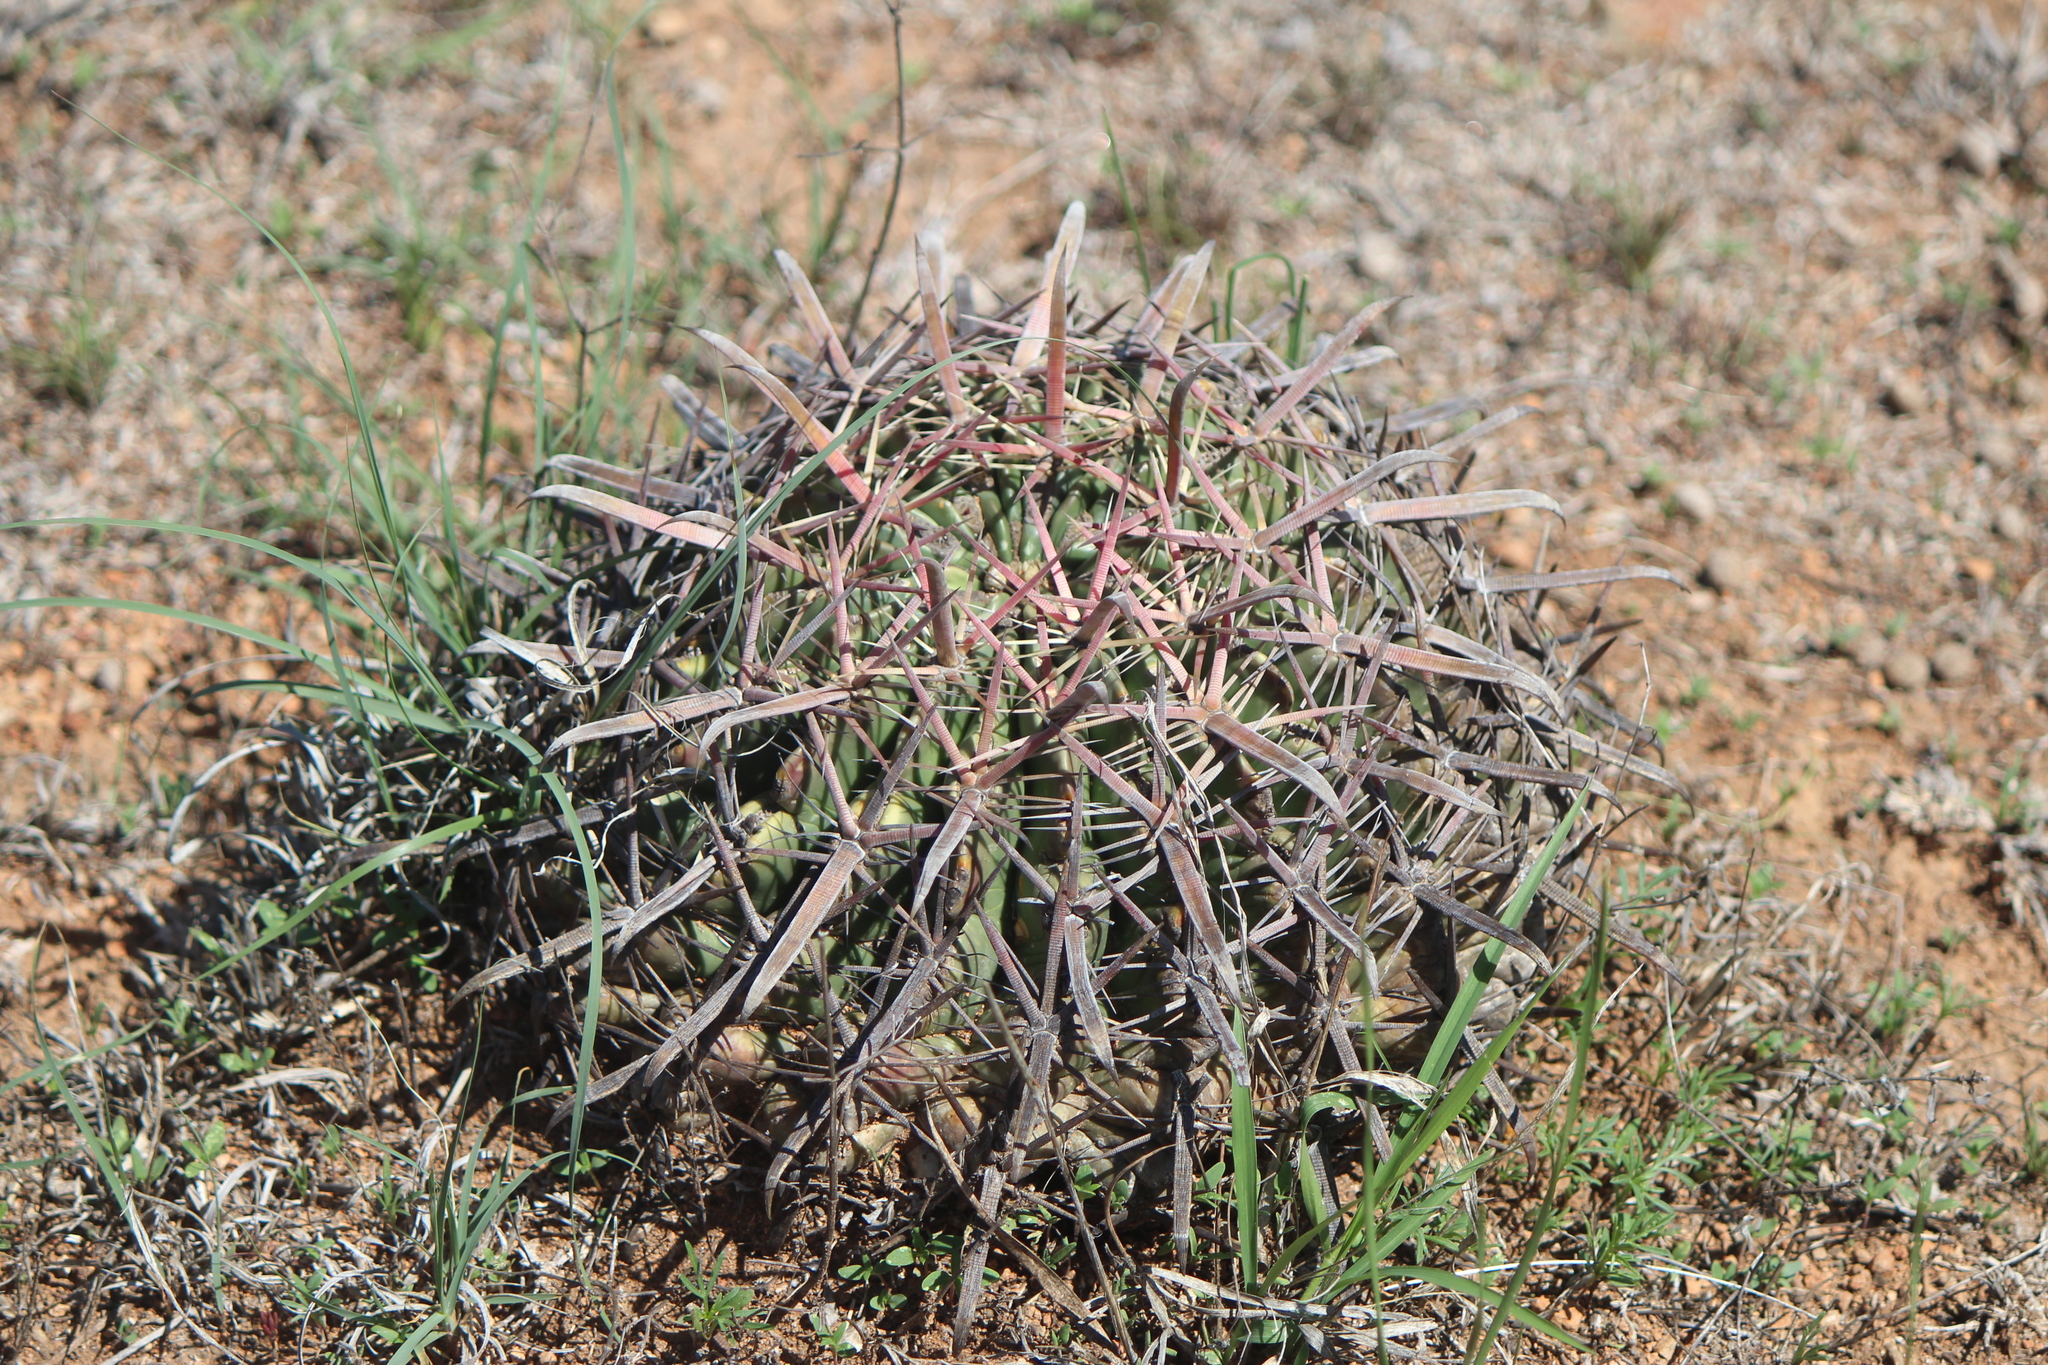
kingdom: Plantae
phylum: Tracheophyta
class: Magnoliopsida
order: Caryophyllales
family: Cactaceae
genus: Ferocactus
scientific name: Ferocactus latispinus
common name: Devil's-tongue cactus
